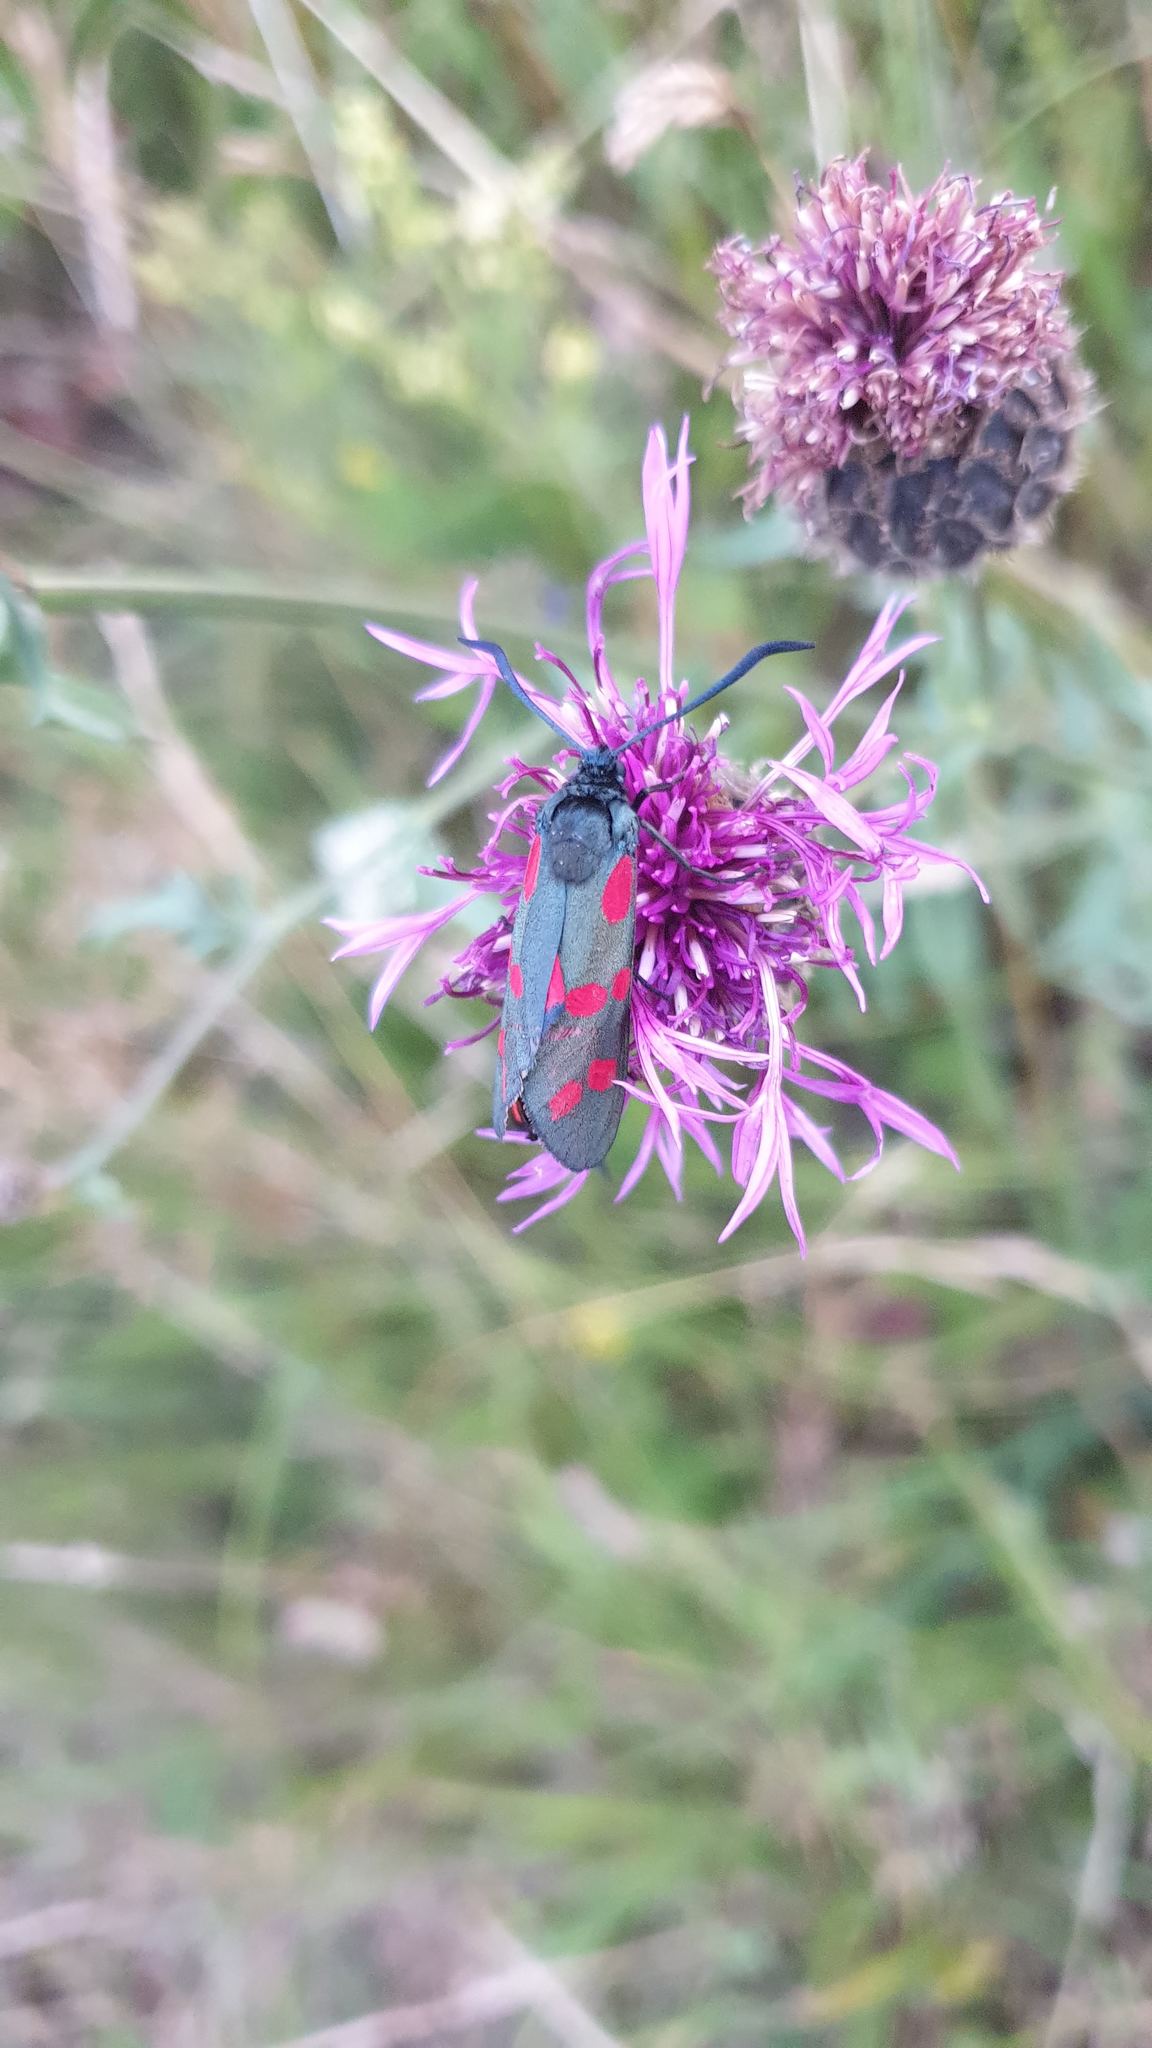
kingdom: Animalia
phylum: Arthropoda
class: Insecta
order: Lepidoptera
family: Zygaenidae
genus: Zygaena
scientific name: Zygaena filipendulae
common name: Six-spot burnet
